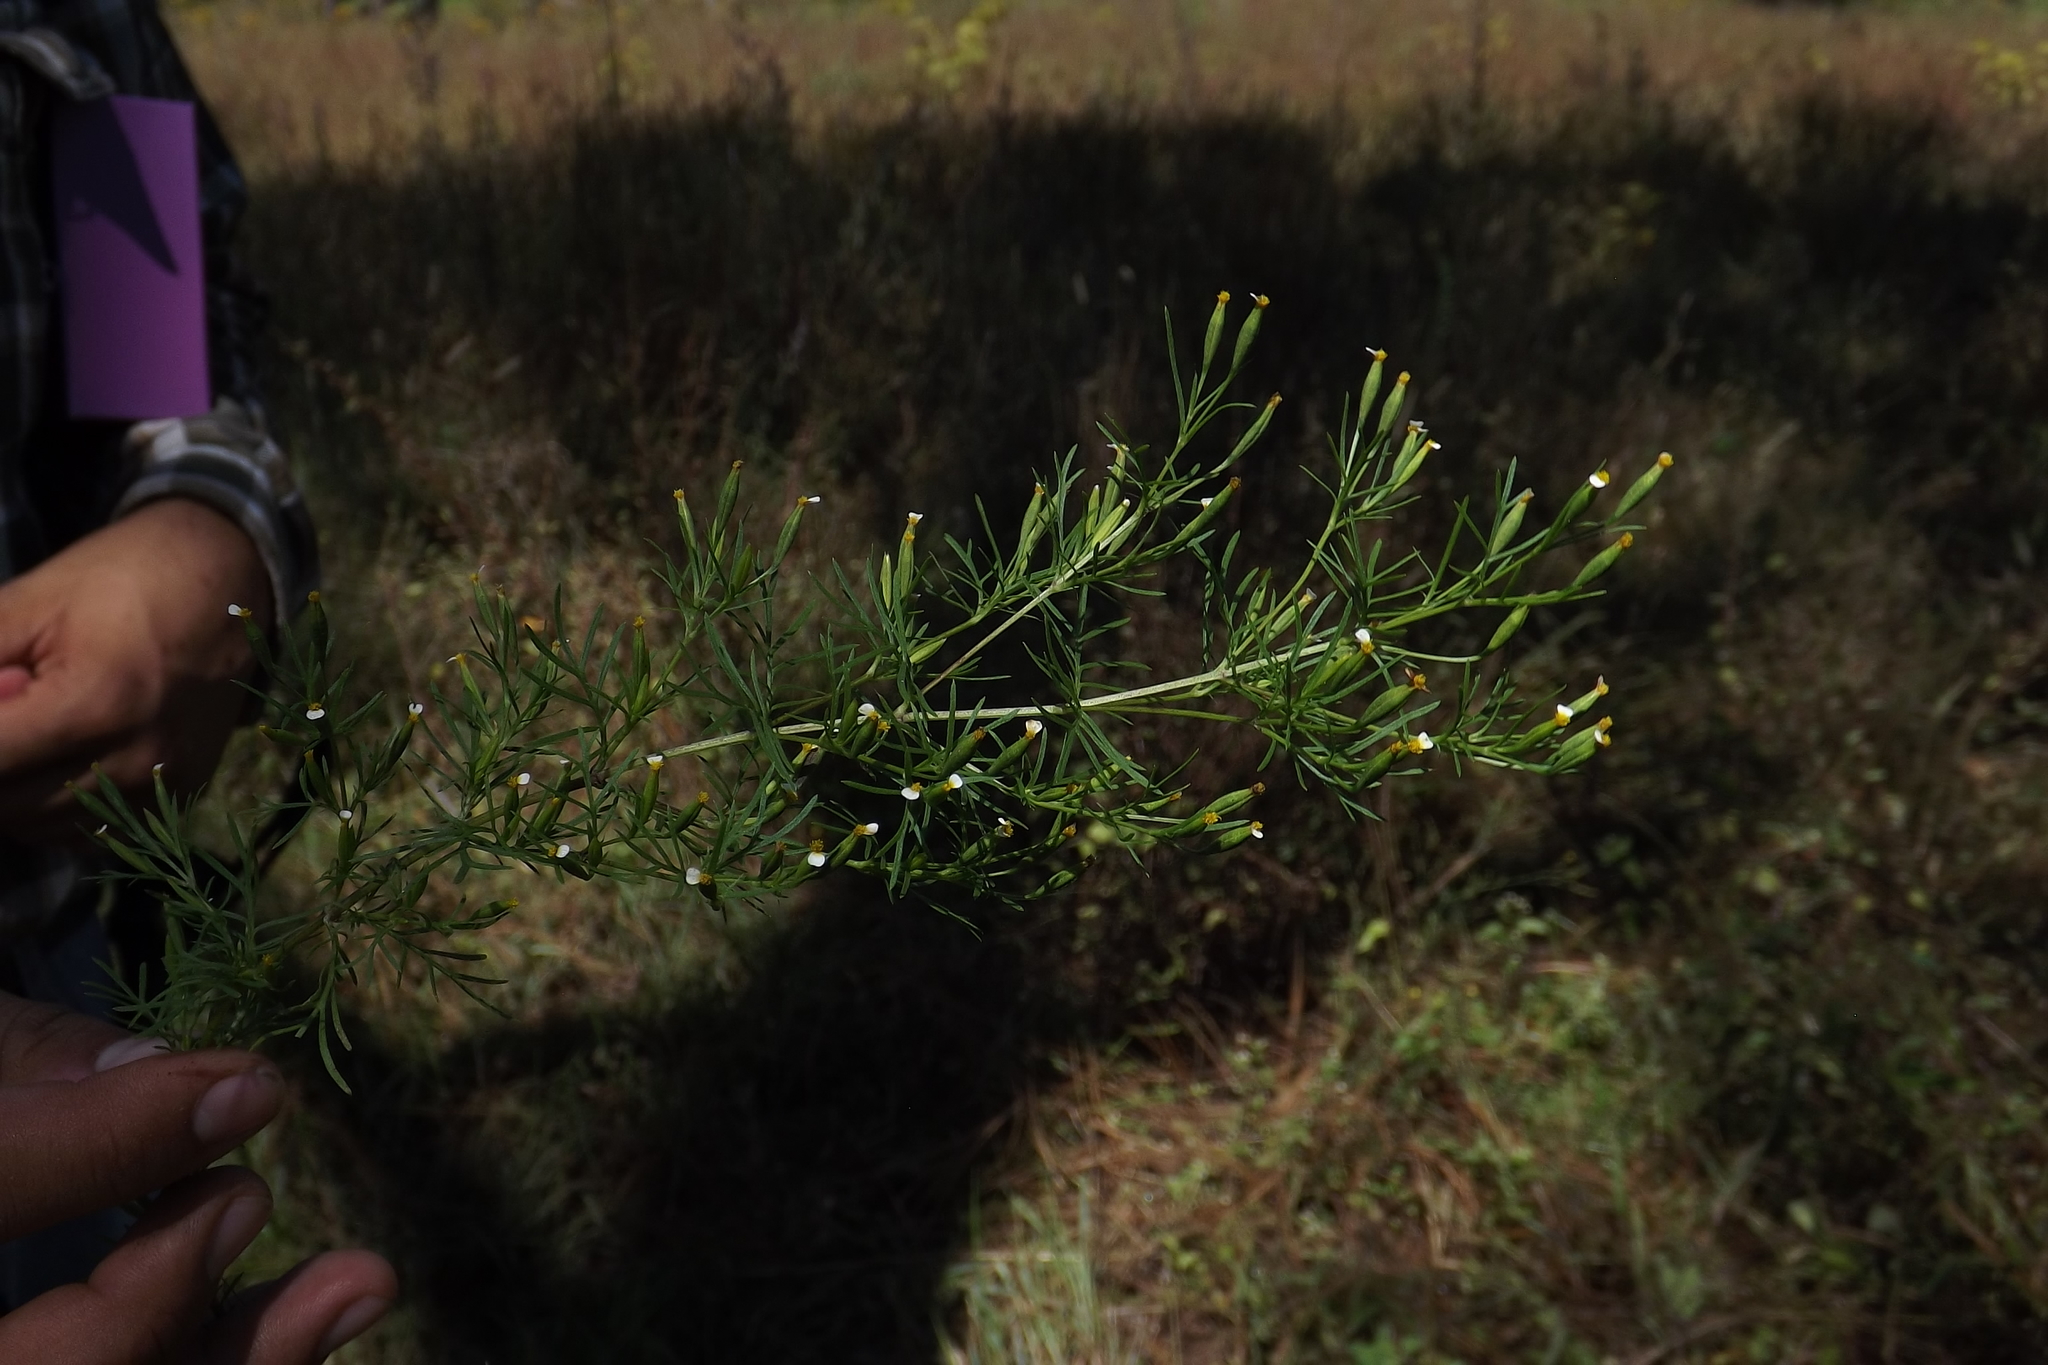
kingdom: Plantae
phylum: Tracheophyta
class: Magnoliopsida
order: Asterales
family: Asteraceae
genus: Tagetes
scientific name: Tagetes filifolia
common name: Lesser marigold
